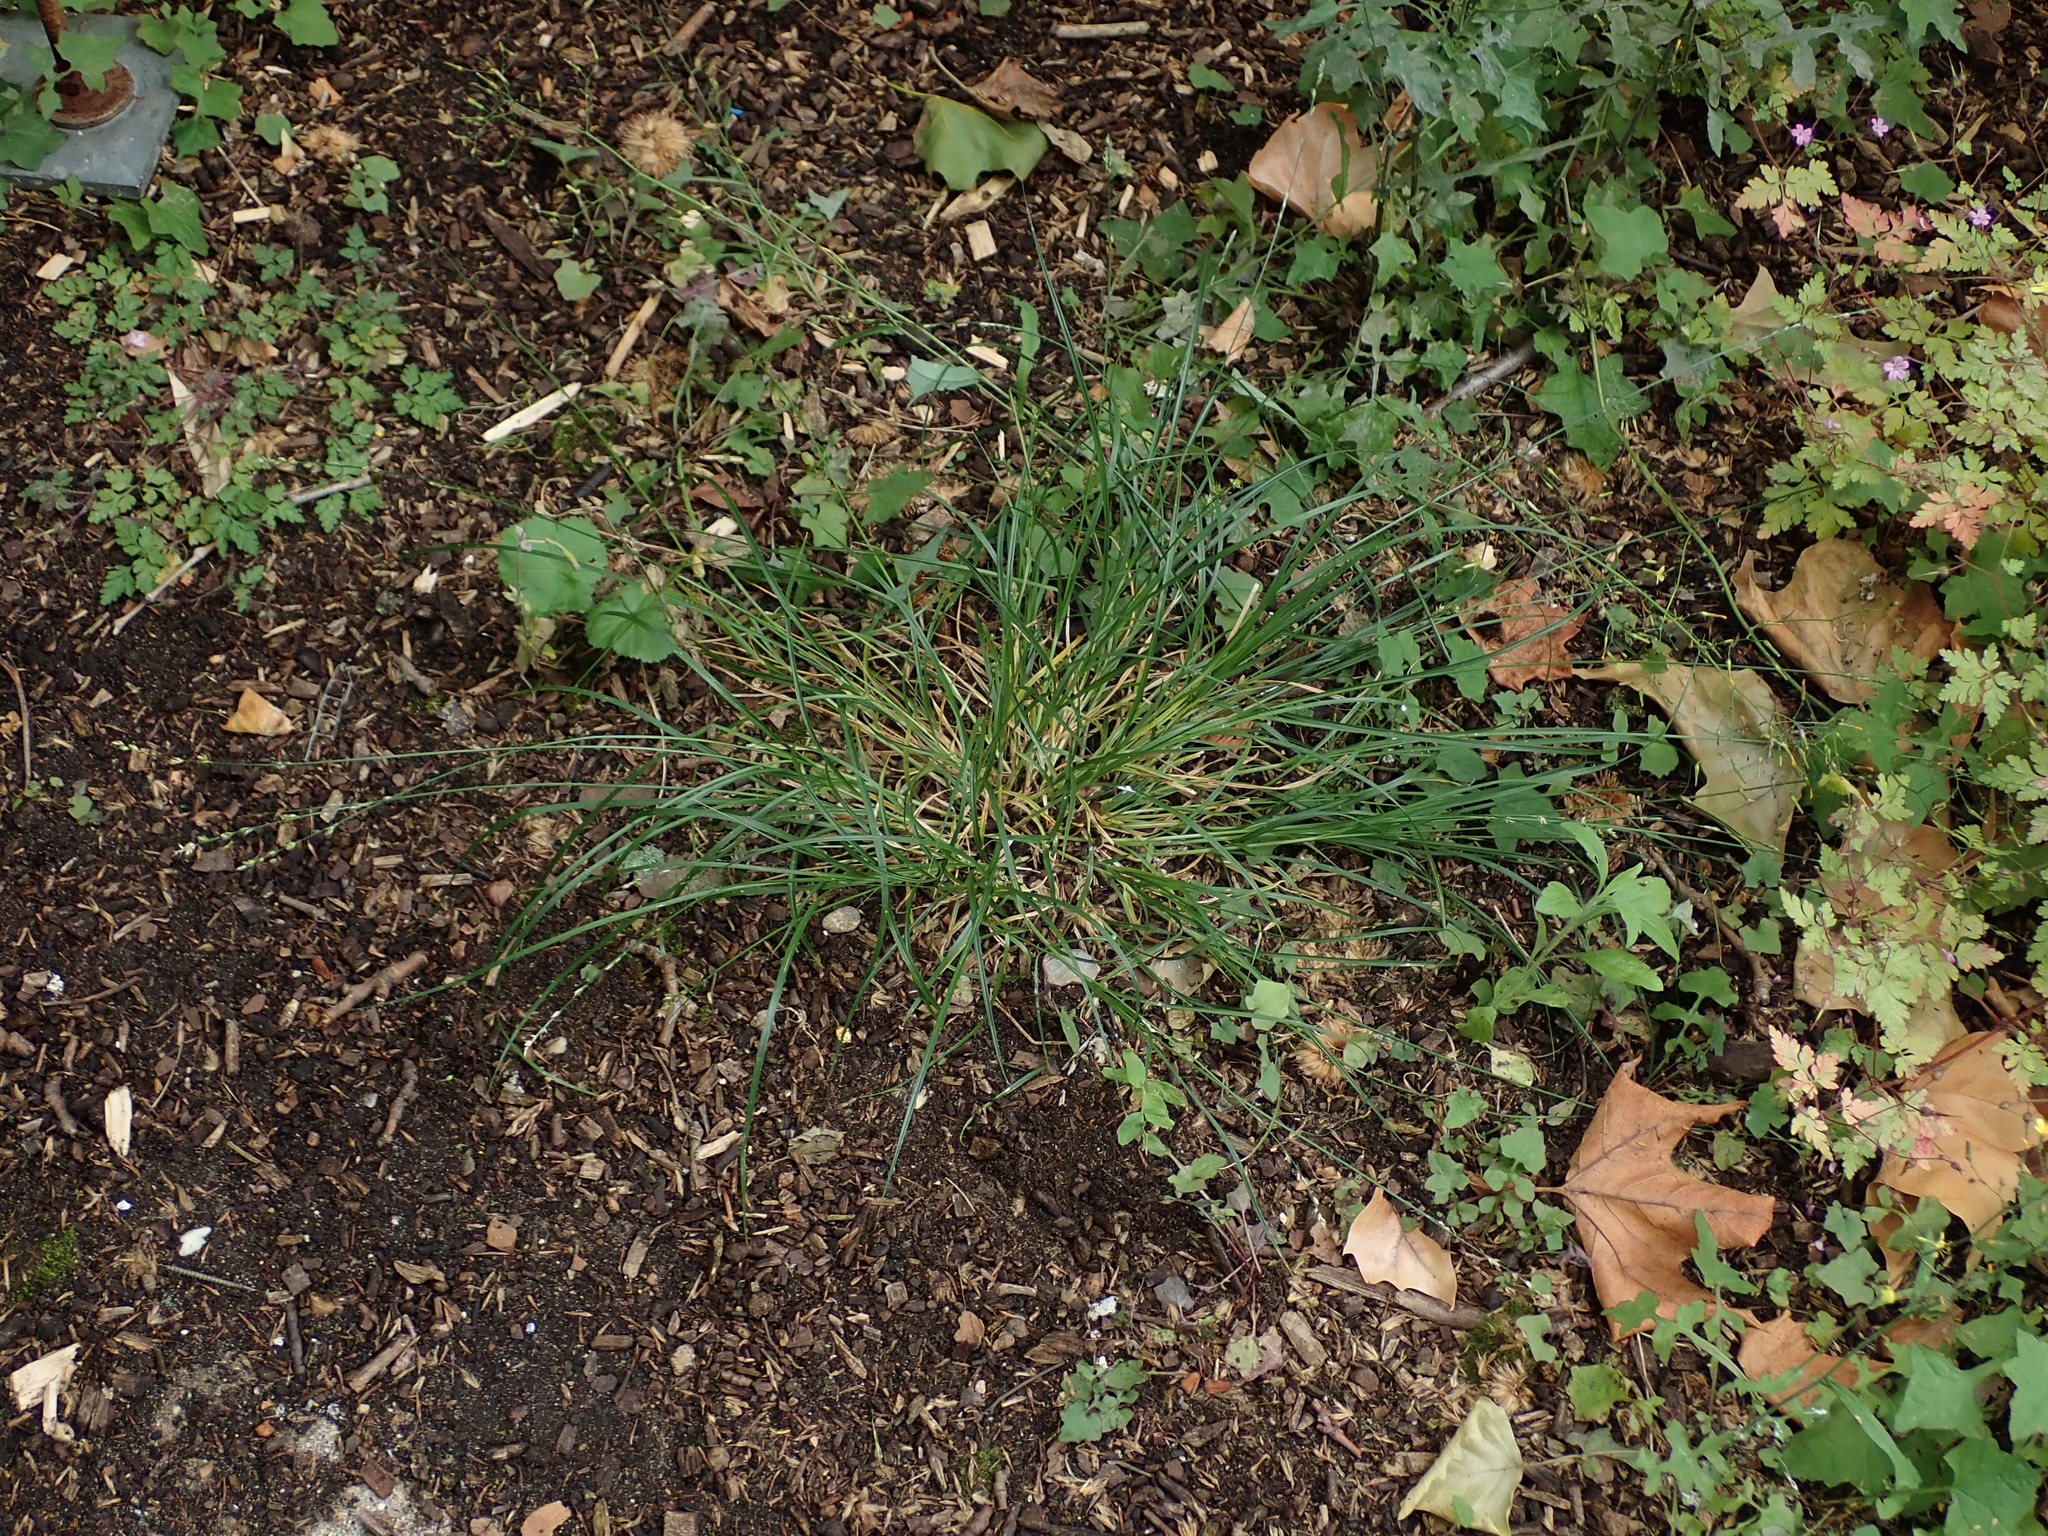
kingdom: Plantae
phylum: Tracheophyta
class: Liliopsida
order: Poales
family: Cyperaceae
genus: Carex
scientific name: Carex divulsa
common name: Grassland sedge
